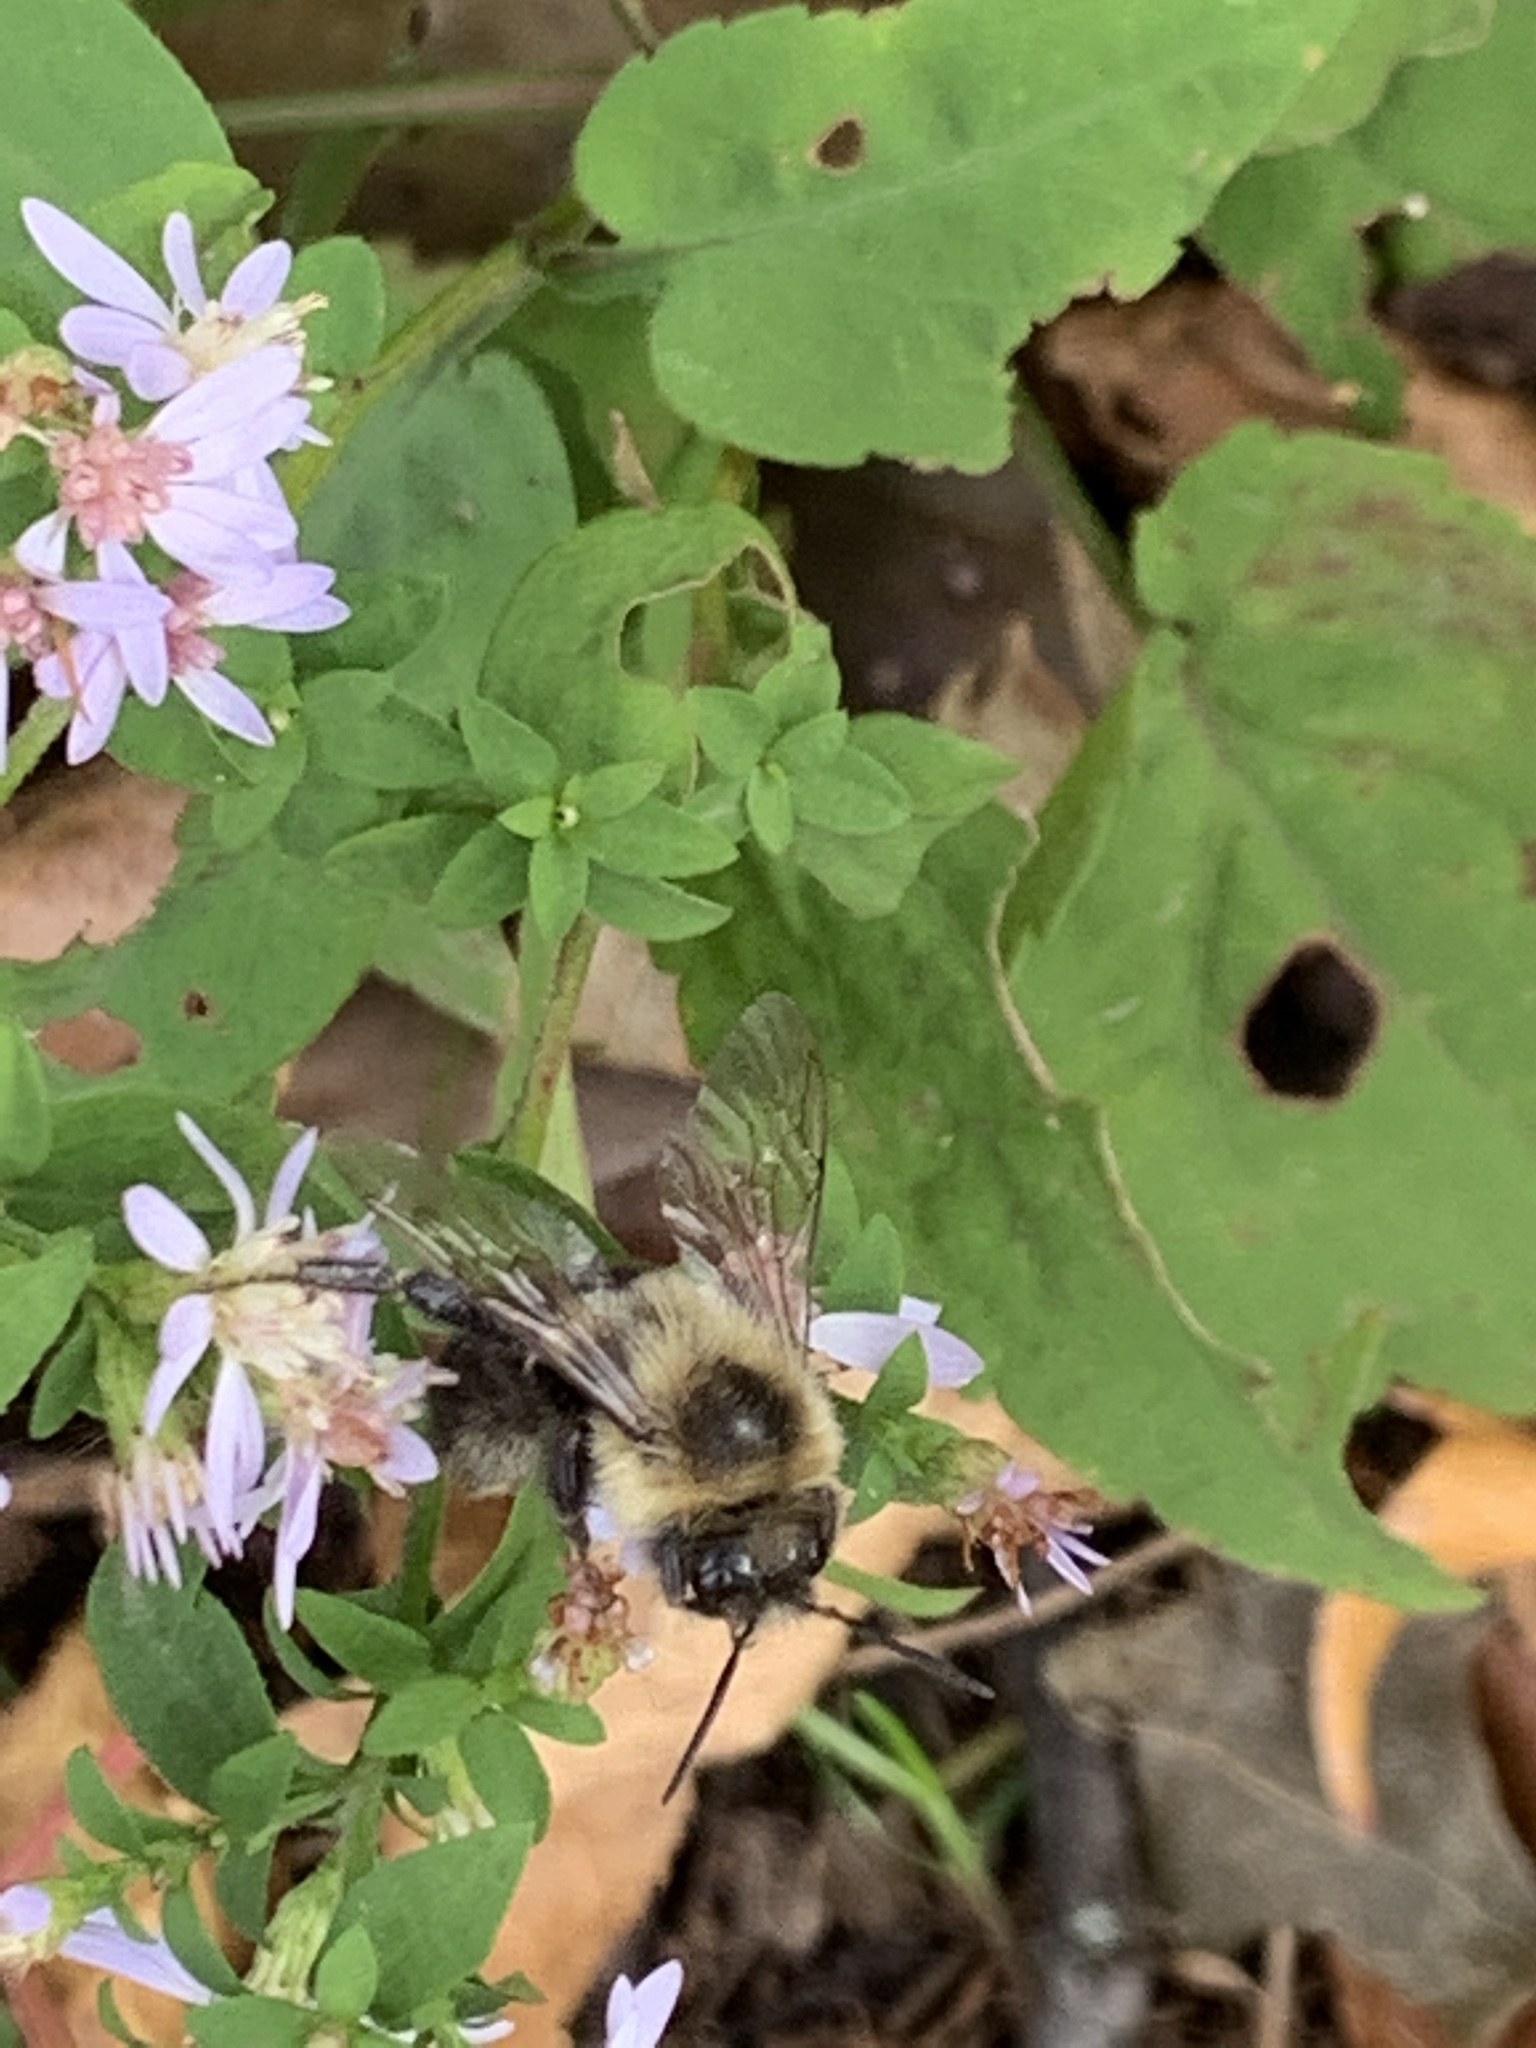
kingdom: Animalia
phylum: Arthropoda
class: Insecta
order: Hymenoptera
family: Apidae
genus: Bombus
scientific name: Bombus impatiens
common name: Common eastern bumble bee
